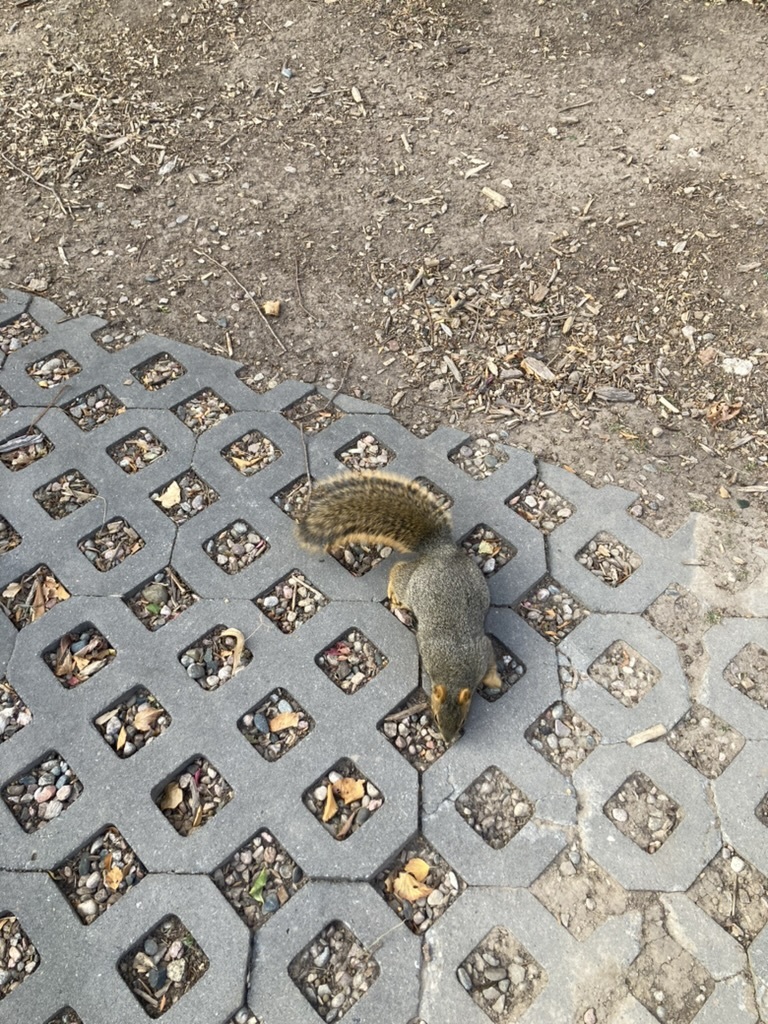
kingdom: Animalia
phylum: Chordata
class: Mammalia
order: Rodentia
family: Sciuridae
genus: Sciurus
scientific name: Sciurus niger
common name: Fox squirrel
